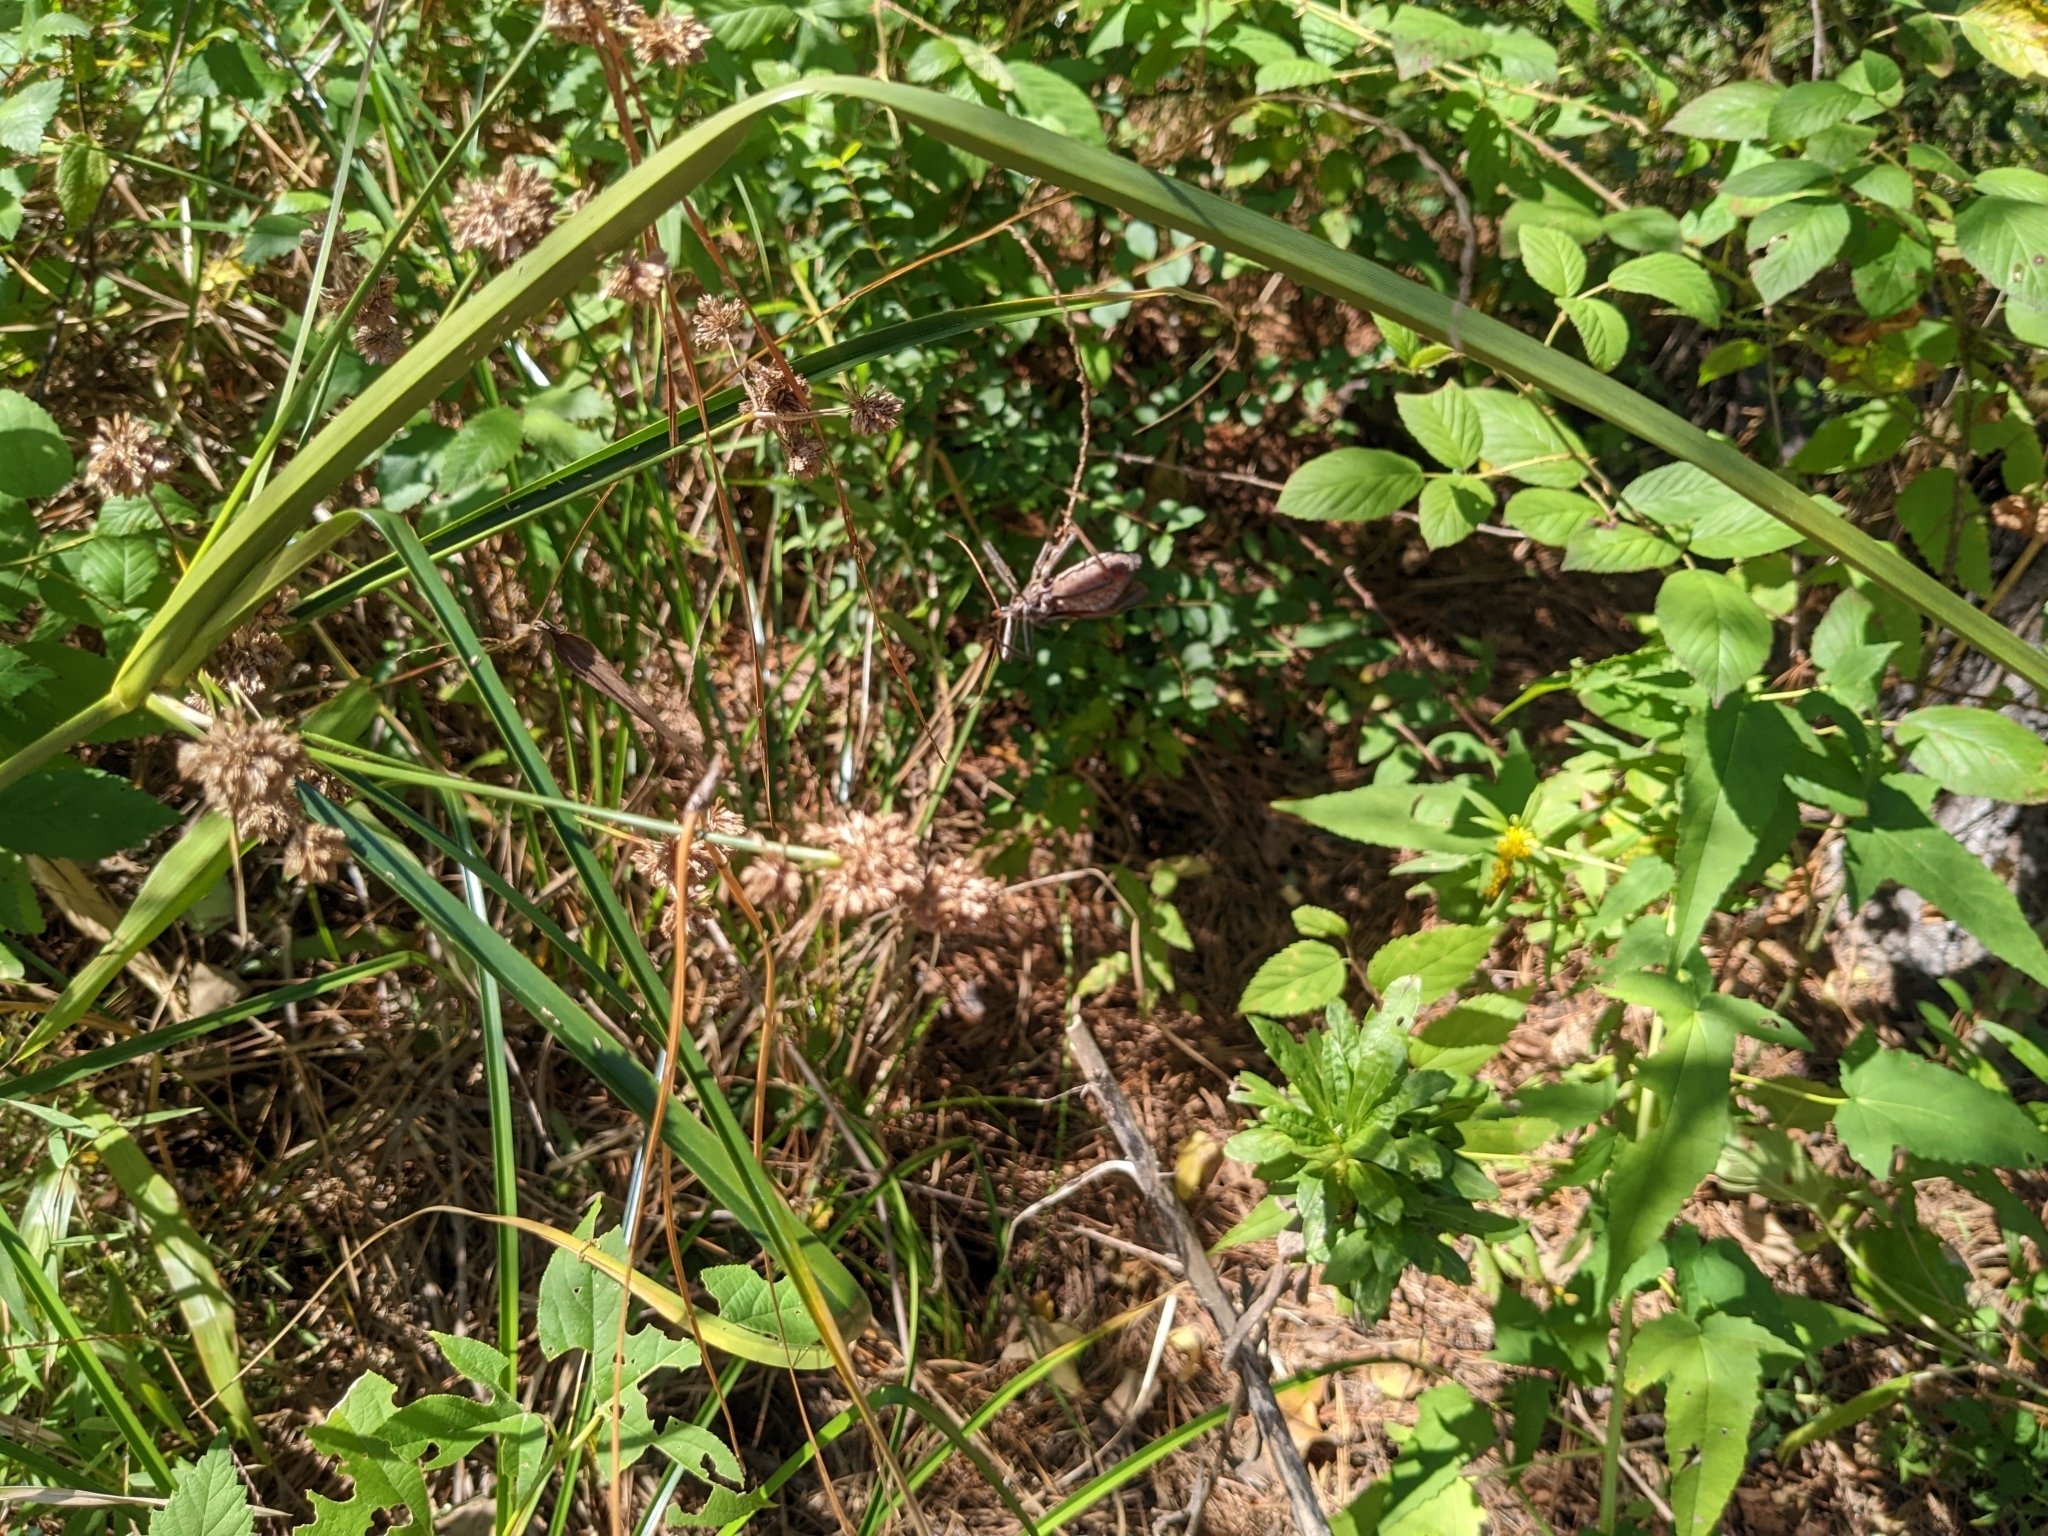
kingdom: Animalia
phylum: Arthropoda
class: Insecta
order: Hemiptera
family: Reduviidae
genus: Arilus
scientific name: Arilus cristatus
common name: North american wheel bug
